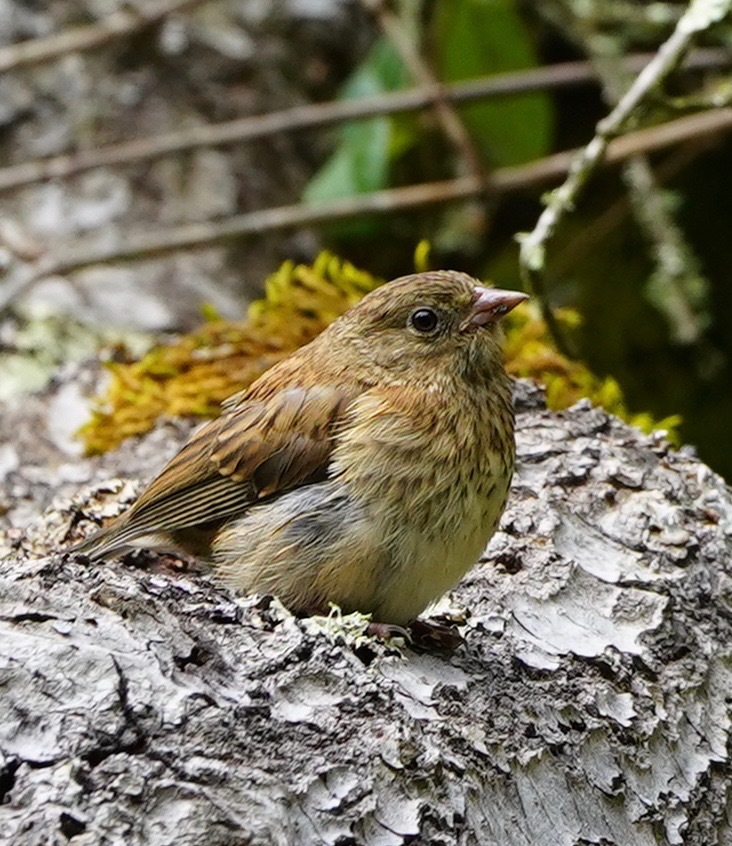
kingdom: Animalia
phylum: Chordata
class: Aves
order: Passeriformes
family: Passerellidae
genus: Junco
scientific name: Junco hyemalis
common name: Dark-eyed junco
